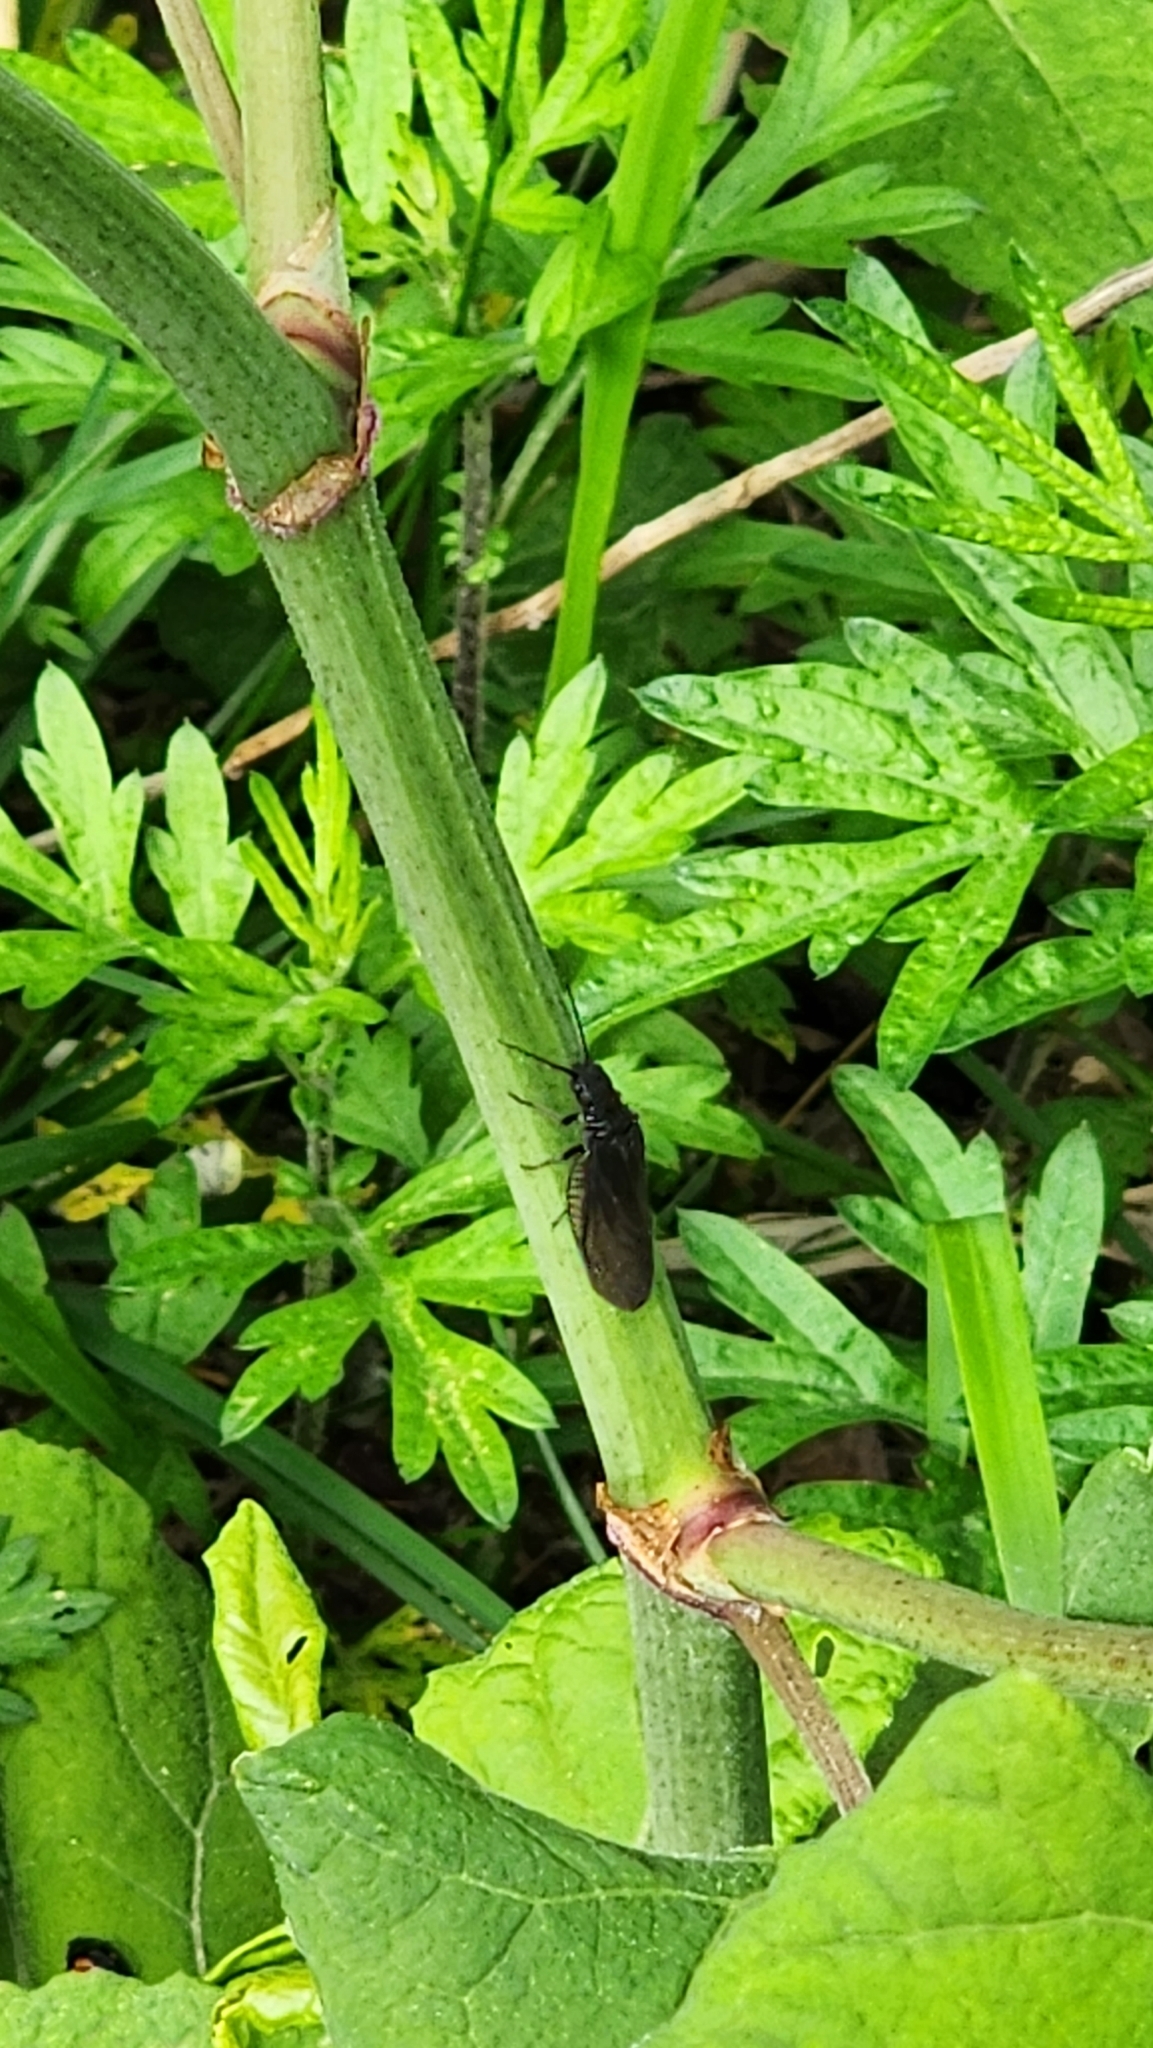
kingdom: Animalia
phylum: Arthropoda
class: Insecta
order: Megaloptera
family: Sialidae
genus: Sialis
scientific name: Sialis
